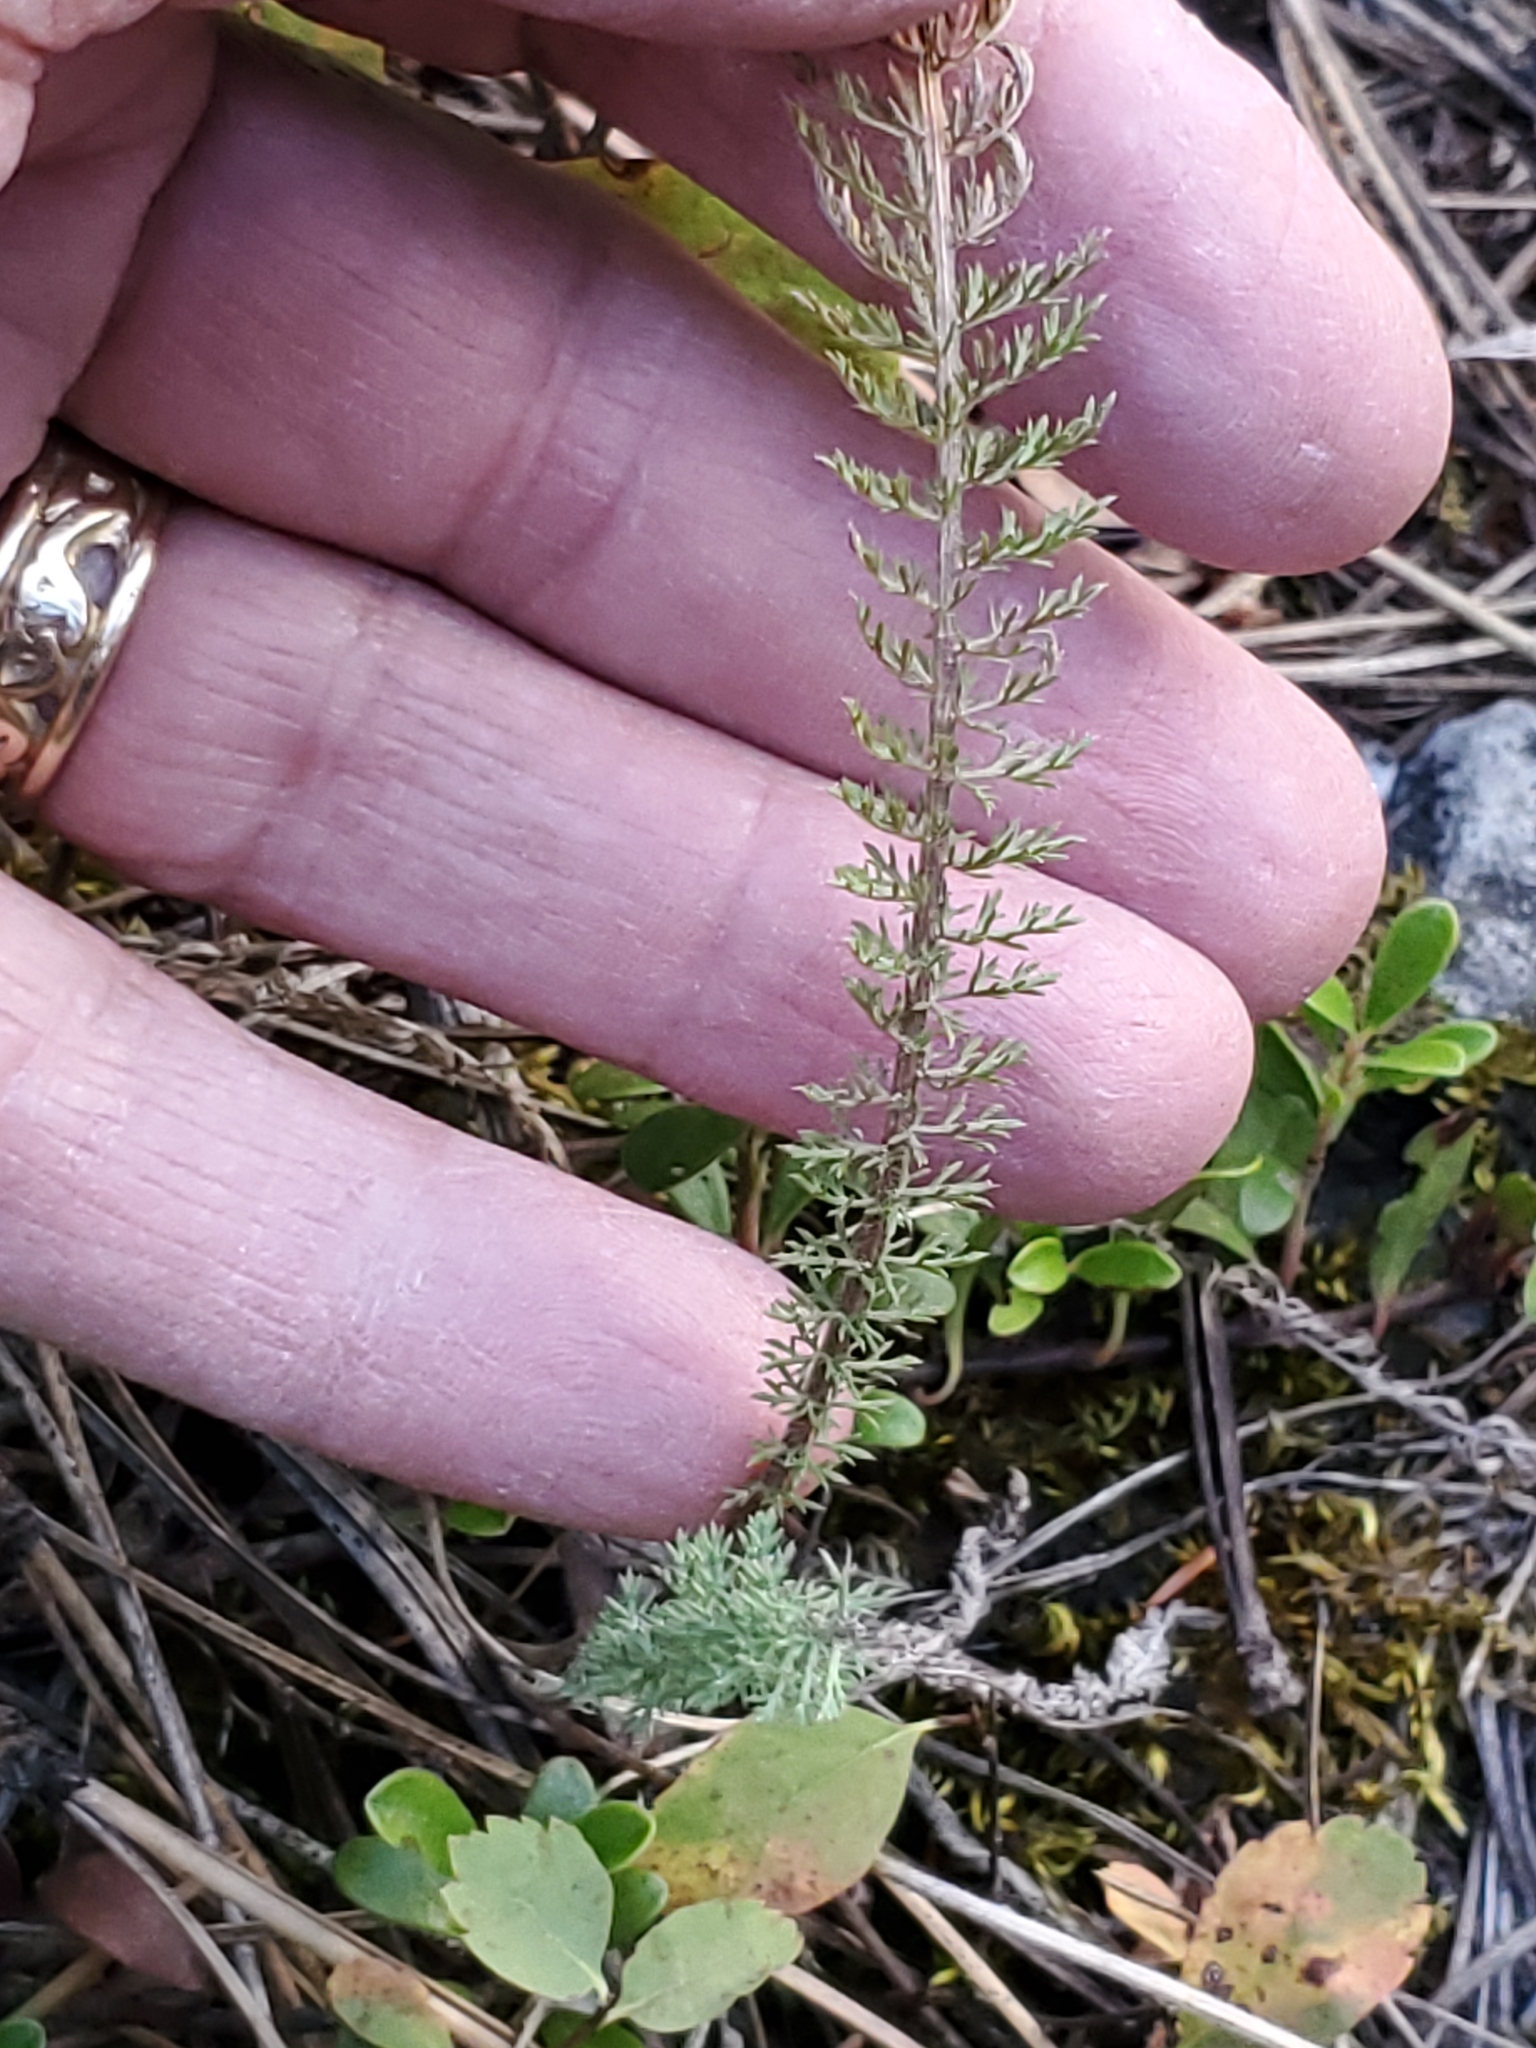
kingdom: Plantae
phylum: Tracheophyta
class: Magnoliopsida
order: Asterales
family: Asteraceae
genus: Achillea
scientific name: Achillea millefolium
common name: Yarrow
